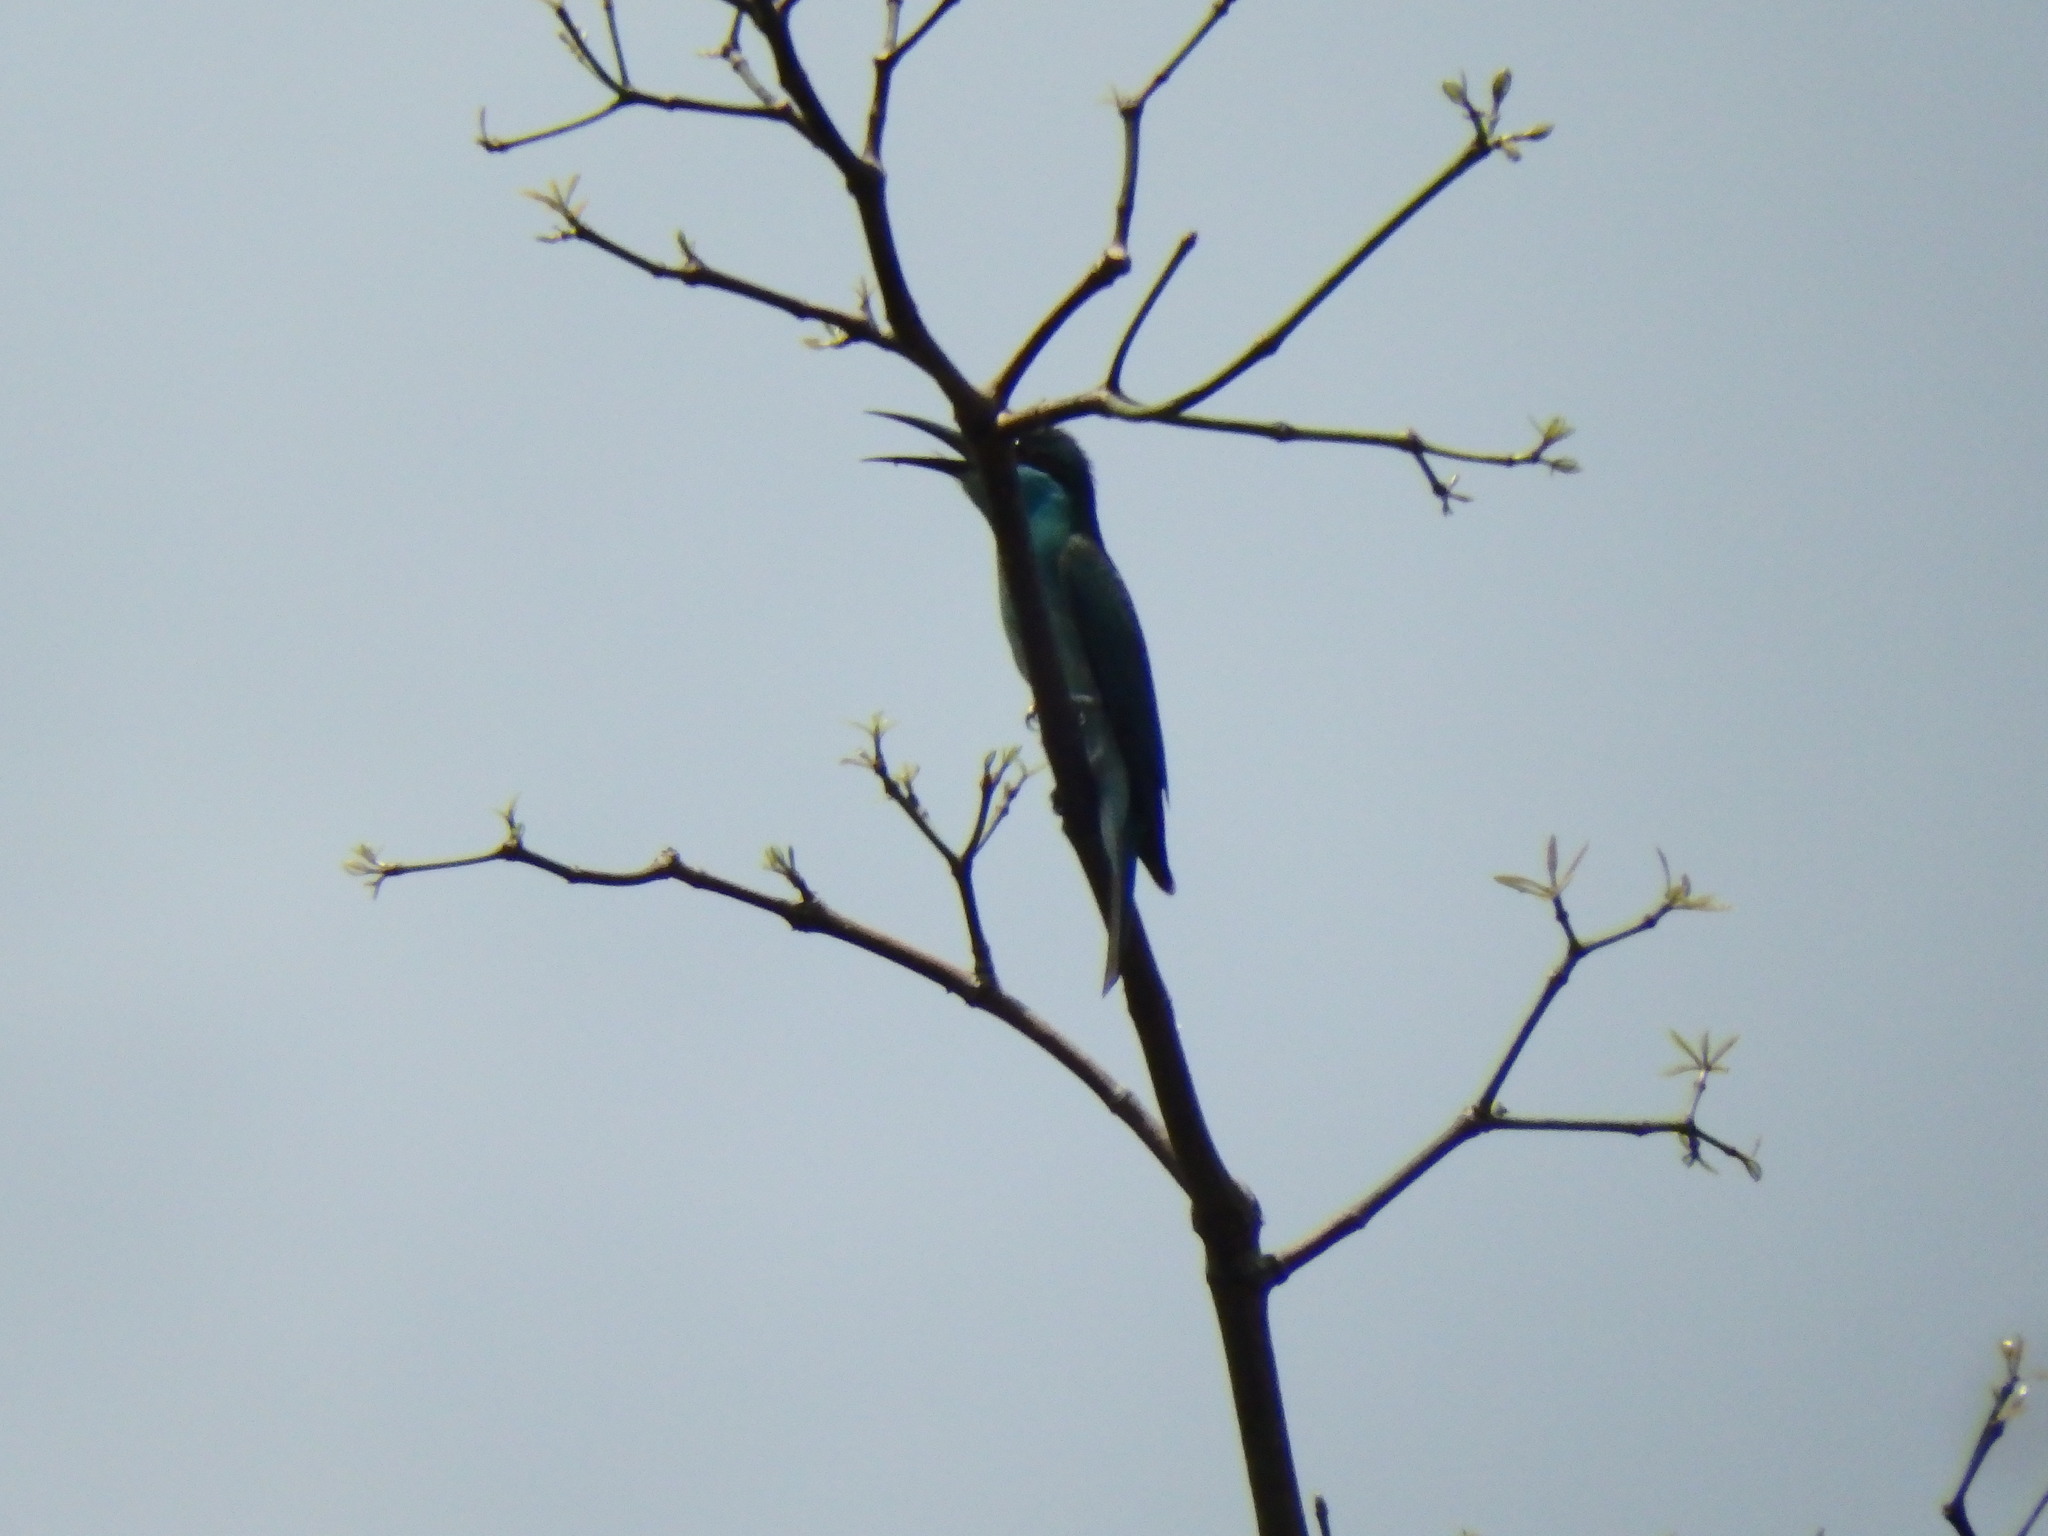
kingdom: Animalia
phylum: Chordata
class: Aves
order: Coraciiformes
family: Meropidae
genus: Merops
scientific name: Merops viridis
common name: Blue-throated bee-eater
